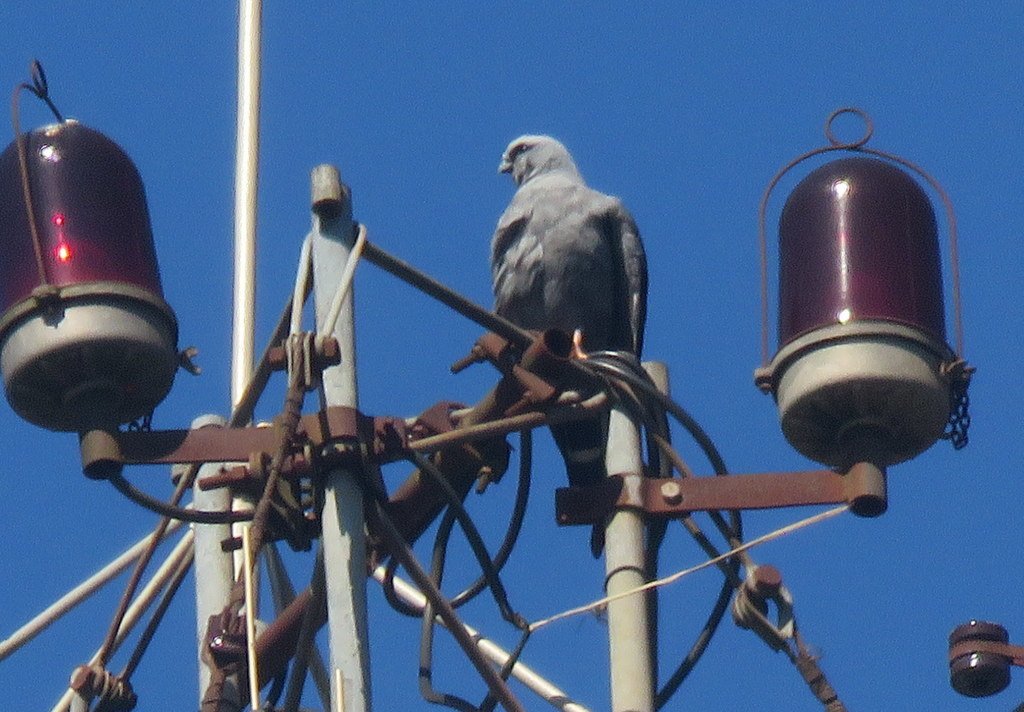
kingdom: Animalia
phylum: Chordata
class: Aves
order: Accipitriformes
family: Accipitridae
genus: Ictinia
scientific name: Ictinia plumbea
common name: Plumbeous kite
